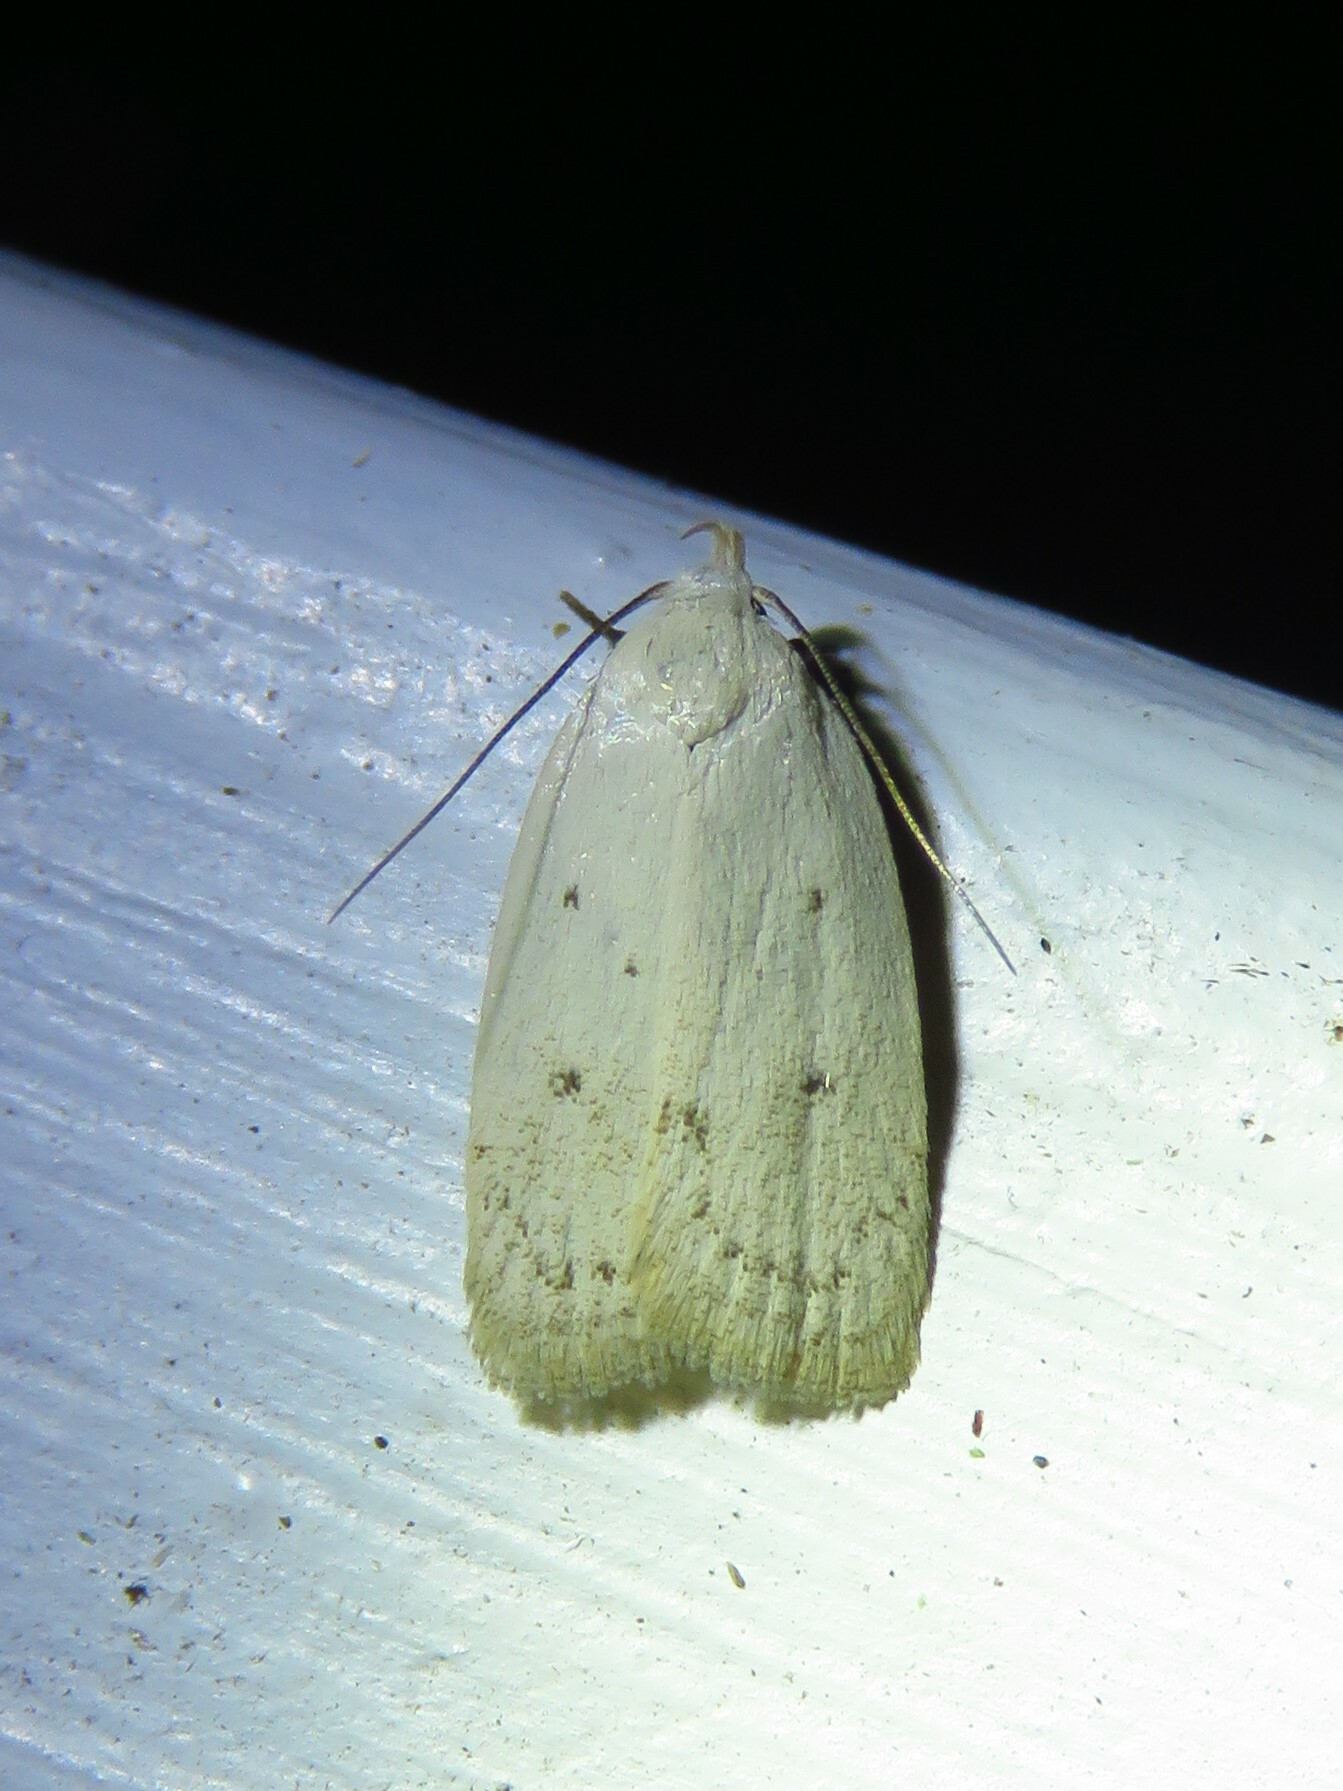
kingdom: Animalia
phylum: Arthropoda
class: Insecta
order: Lepidoptera
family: Oecophoridae
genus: Inga
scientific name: Inga cretacea
